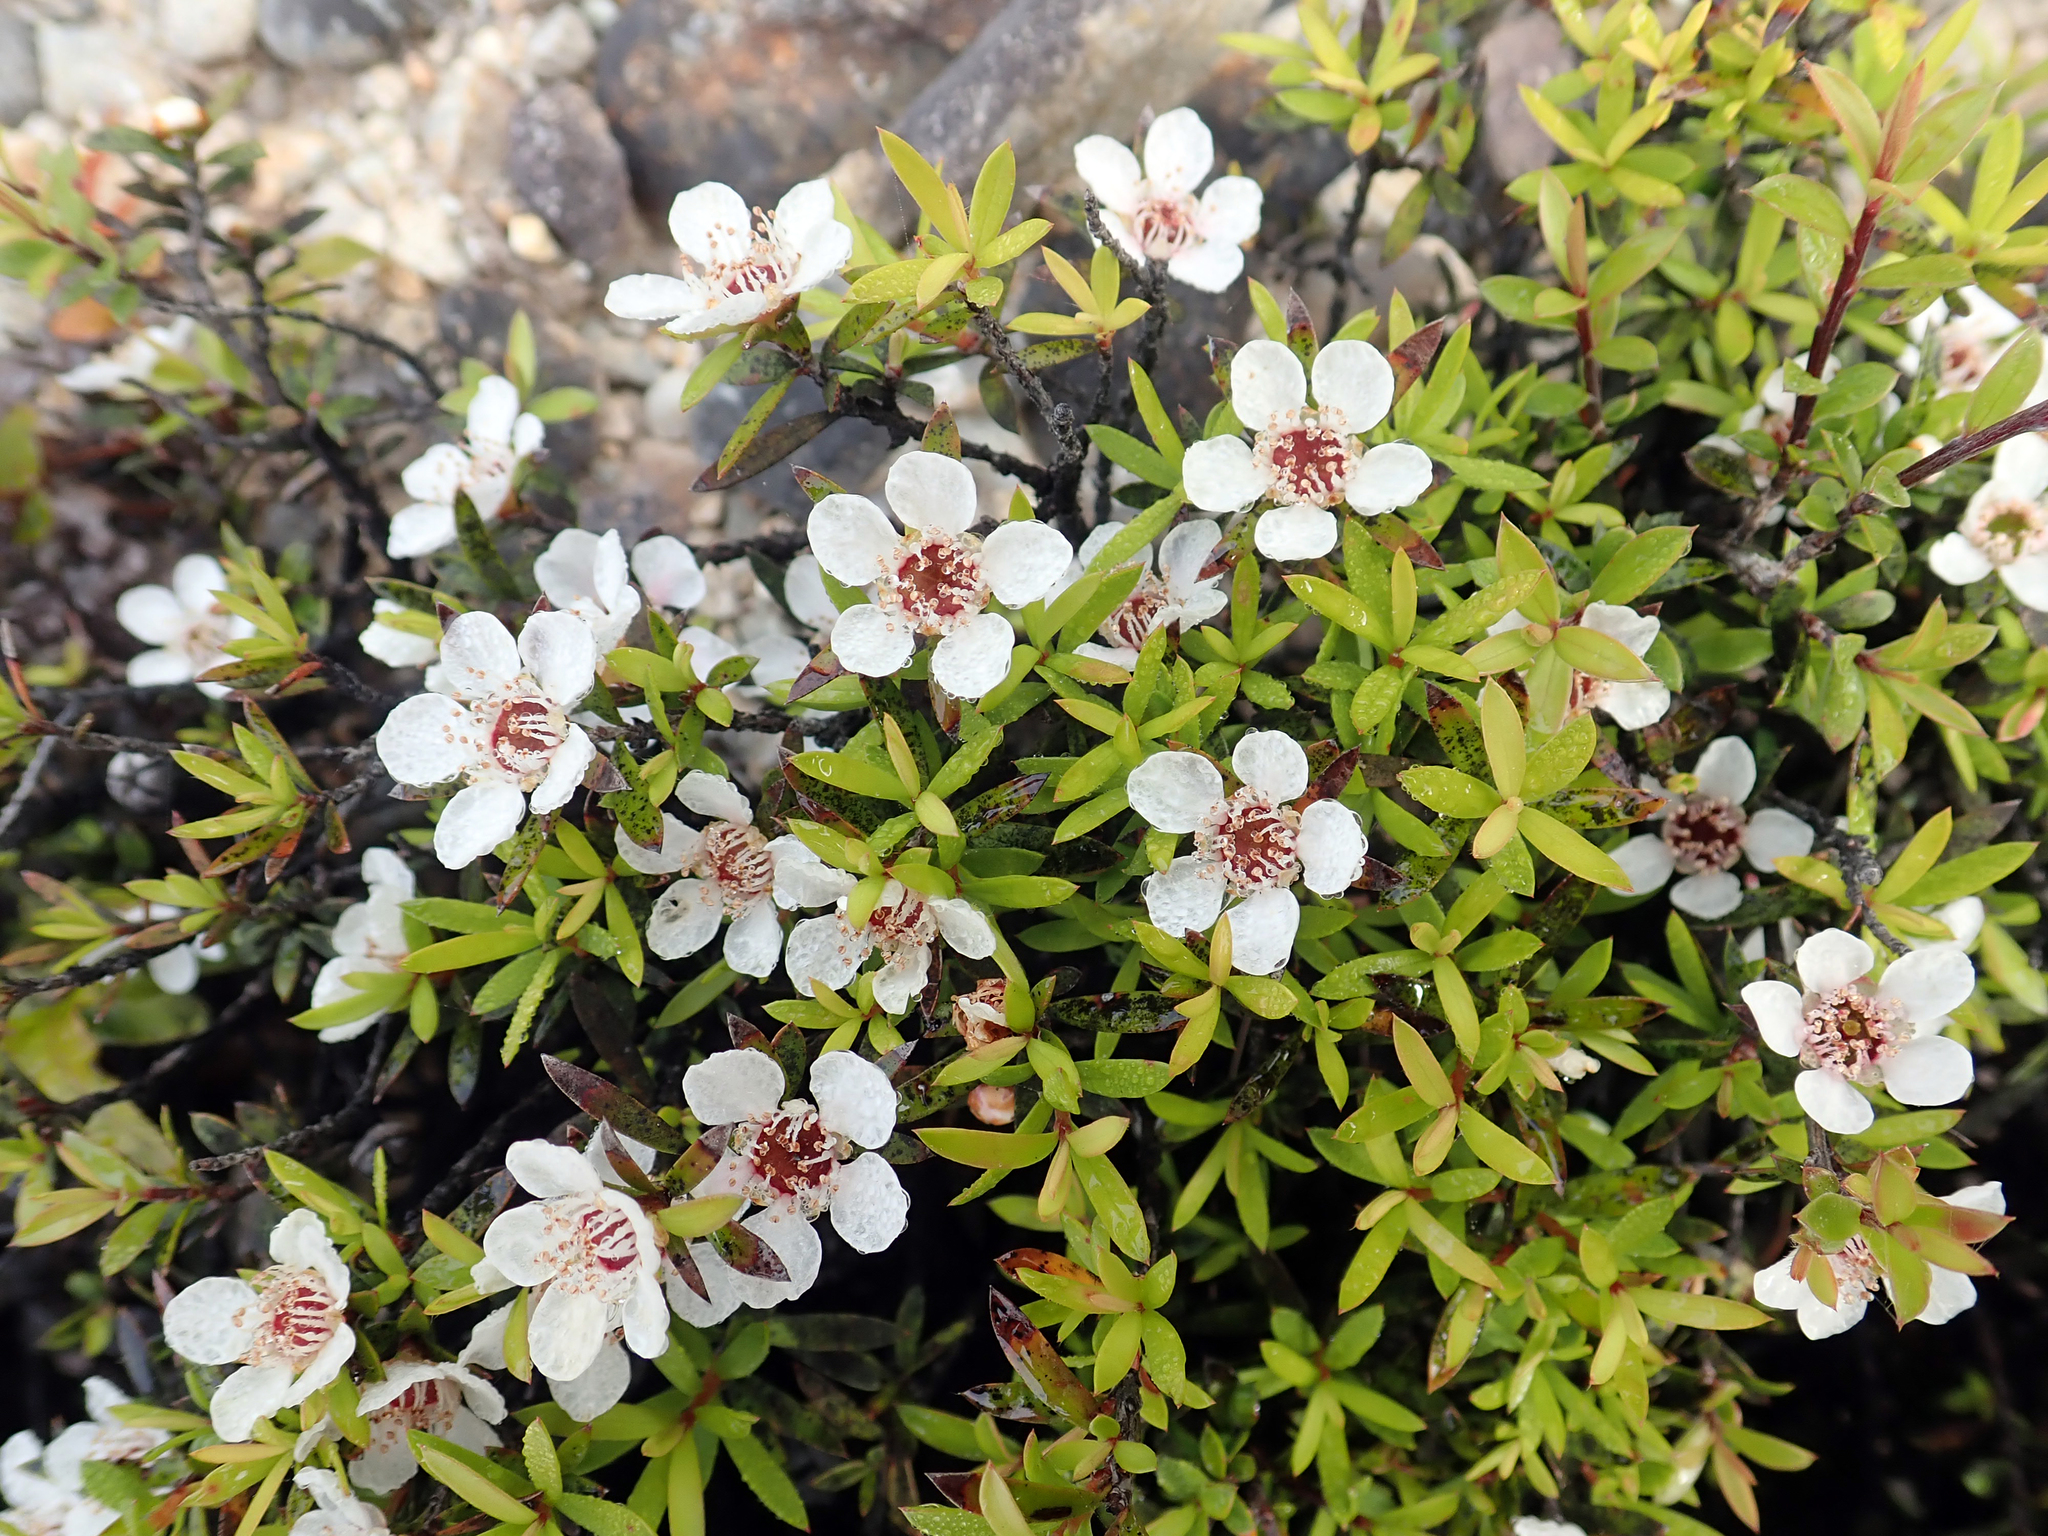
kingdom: Plantae
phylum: Tracheophyta
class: Magnoliopsida
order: Myrtales
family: Myrtaceae
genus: Leptospermum
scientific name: Leptospermum scoparium
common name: Broom tea-tree
